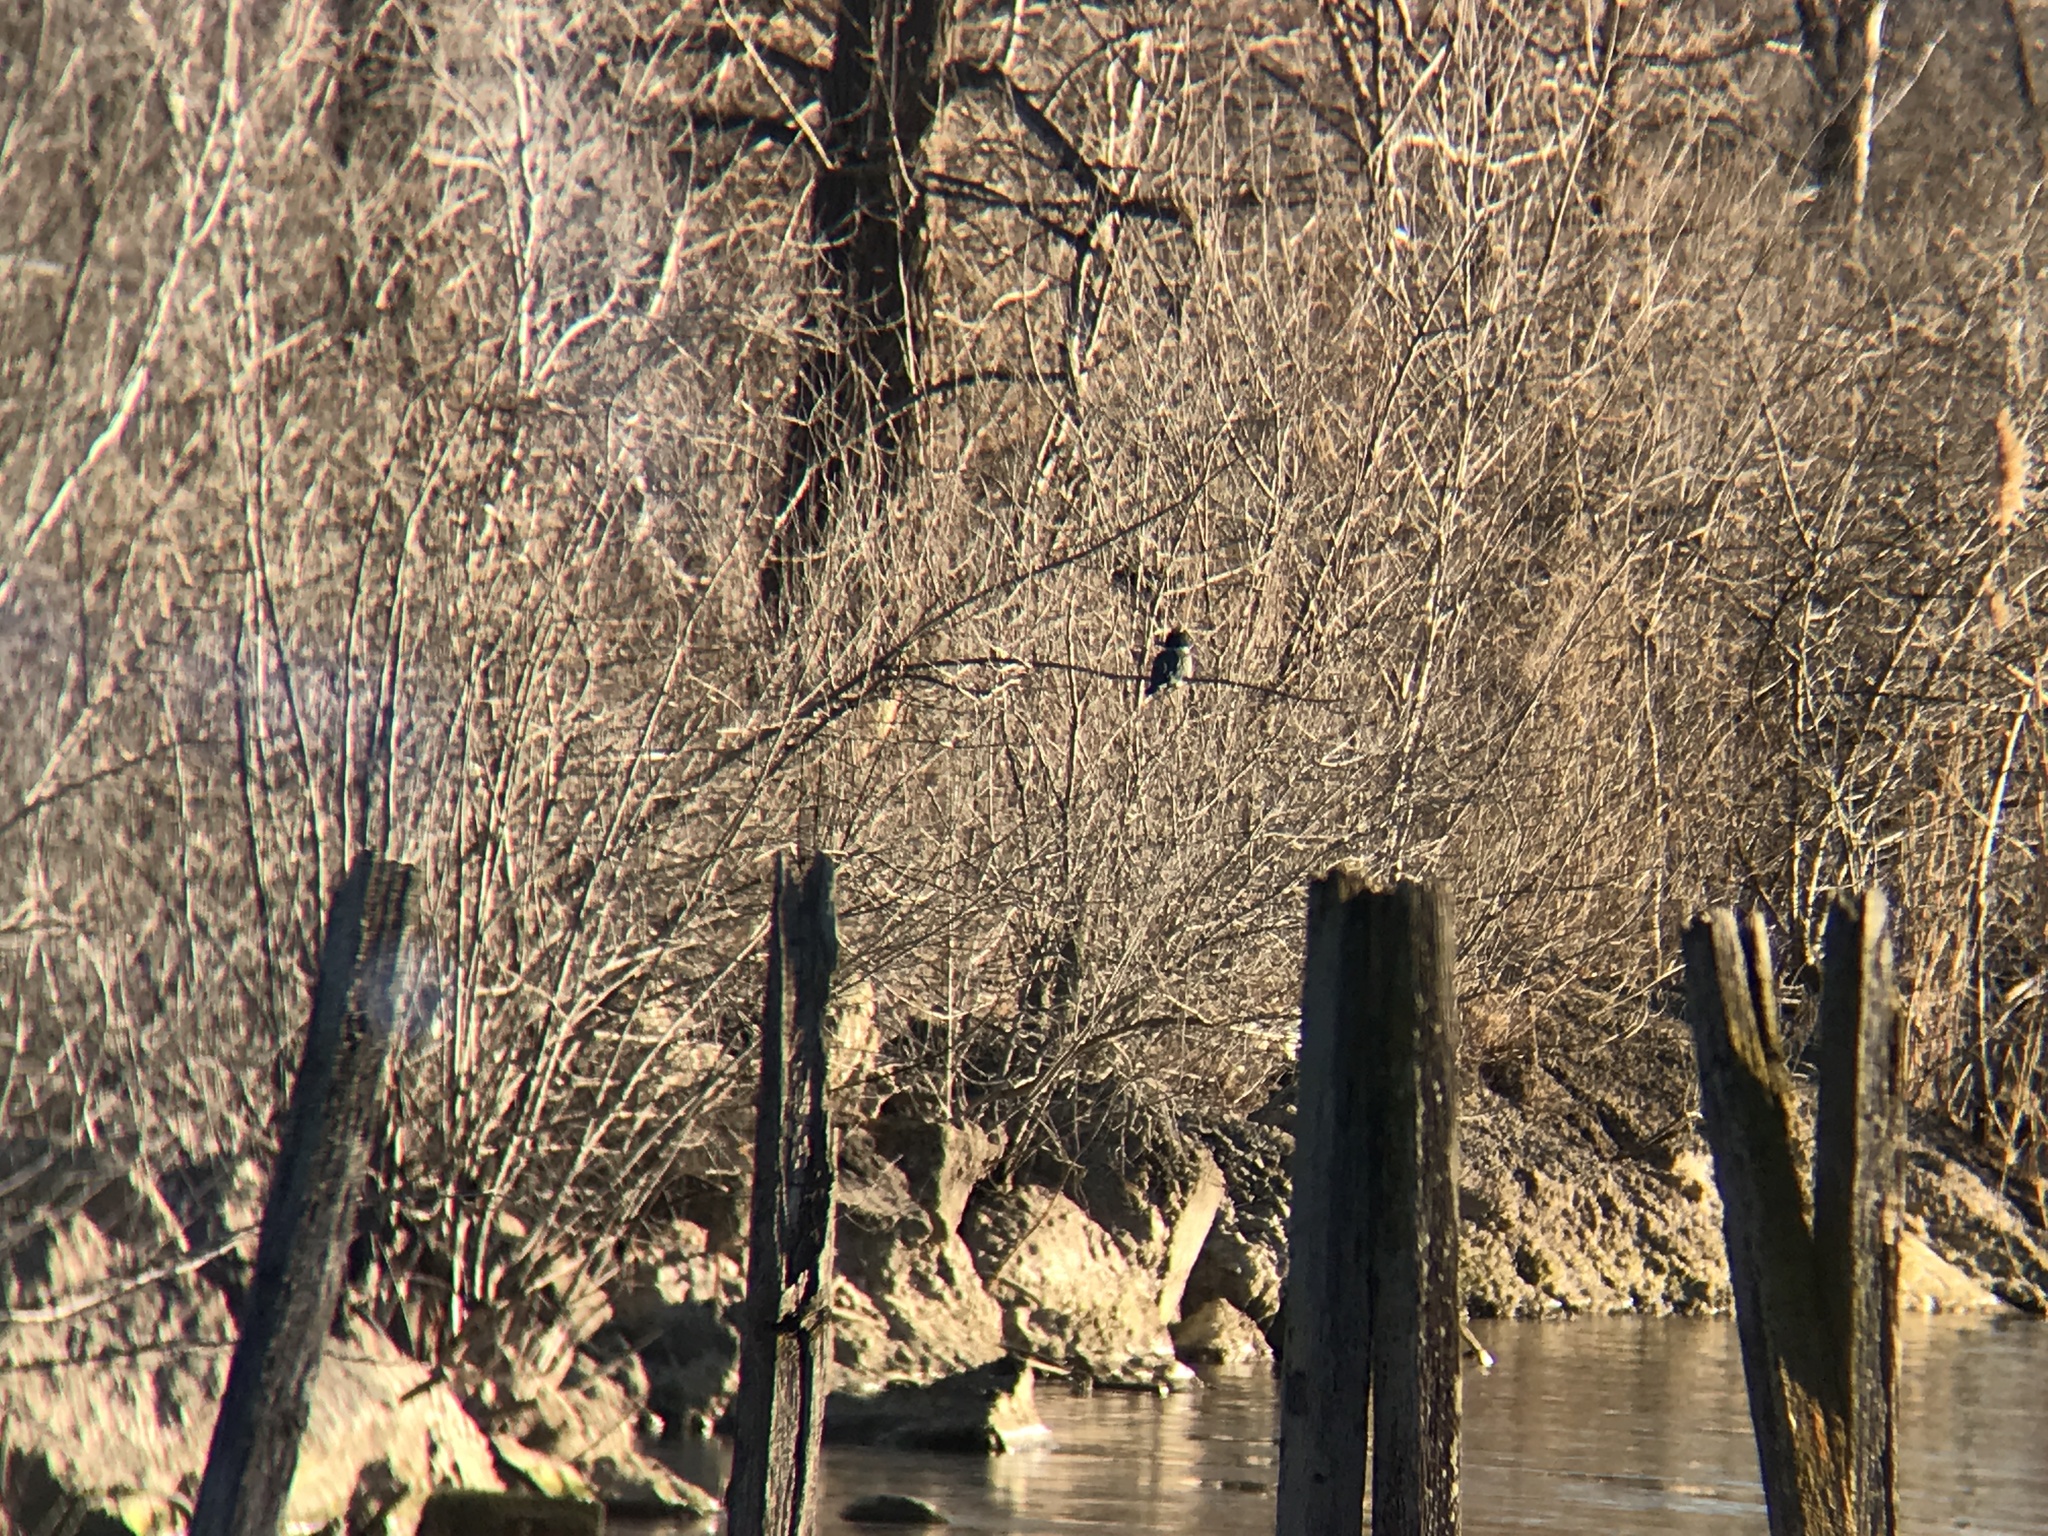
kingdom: Animalia
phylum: Chordata
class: Aves
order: Coraciiformes
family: Alcedinidae
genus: Megaceryle
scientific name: Megaceryle alcyon
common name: Belted kingfisher
